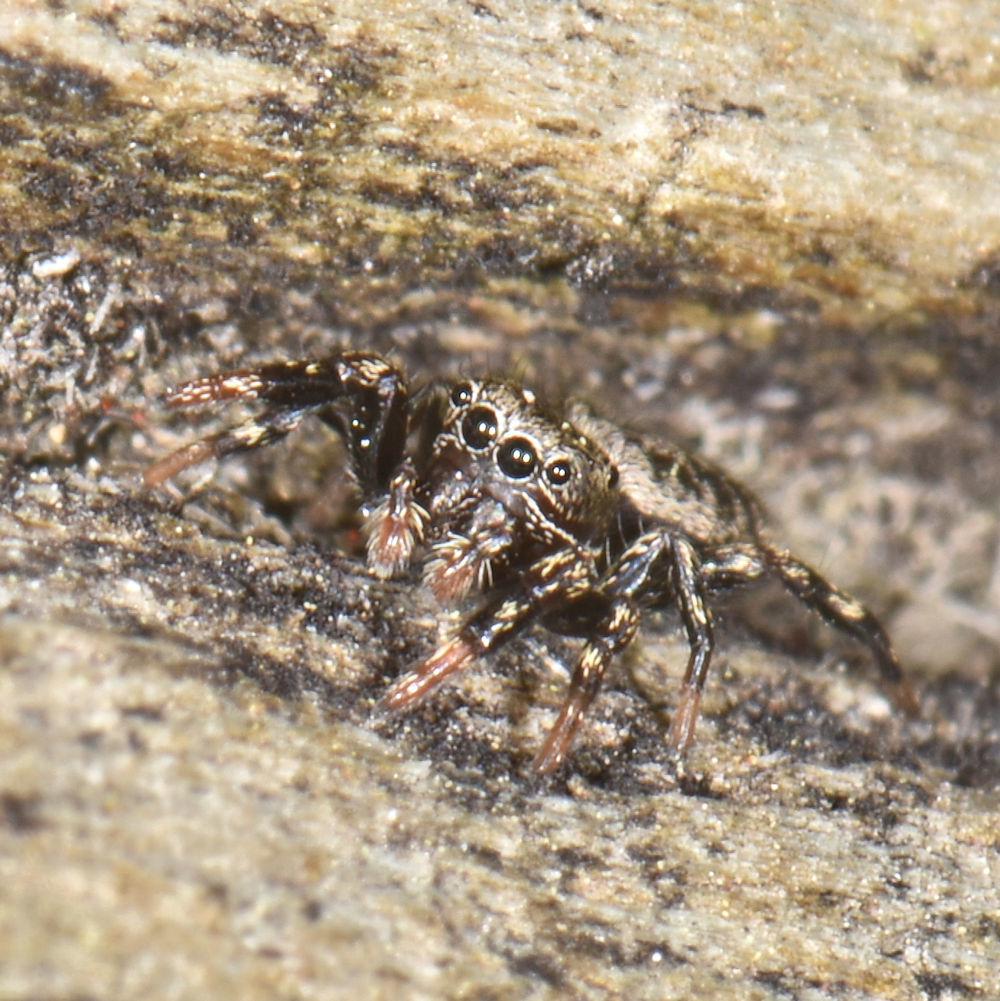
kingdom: Animalia
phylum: Arthropoda
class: Arachnida
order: Araneae
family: Salticidae
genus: Tutelina
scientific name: Tutelina harti
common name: Hart's jumping spider
